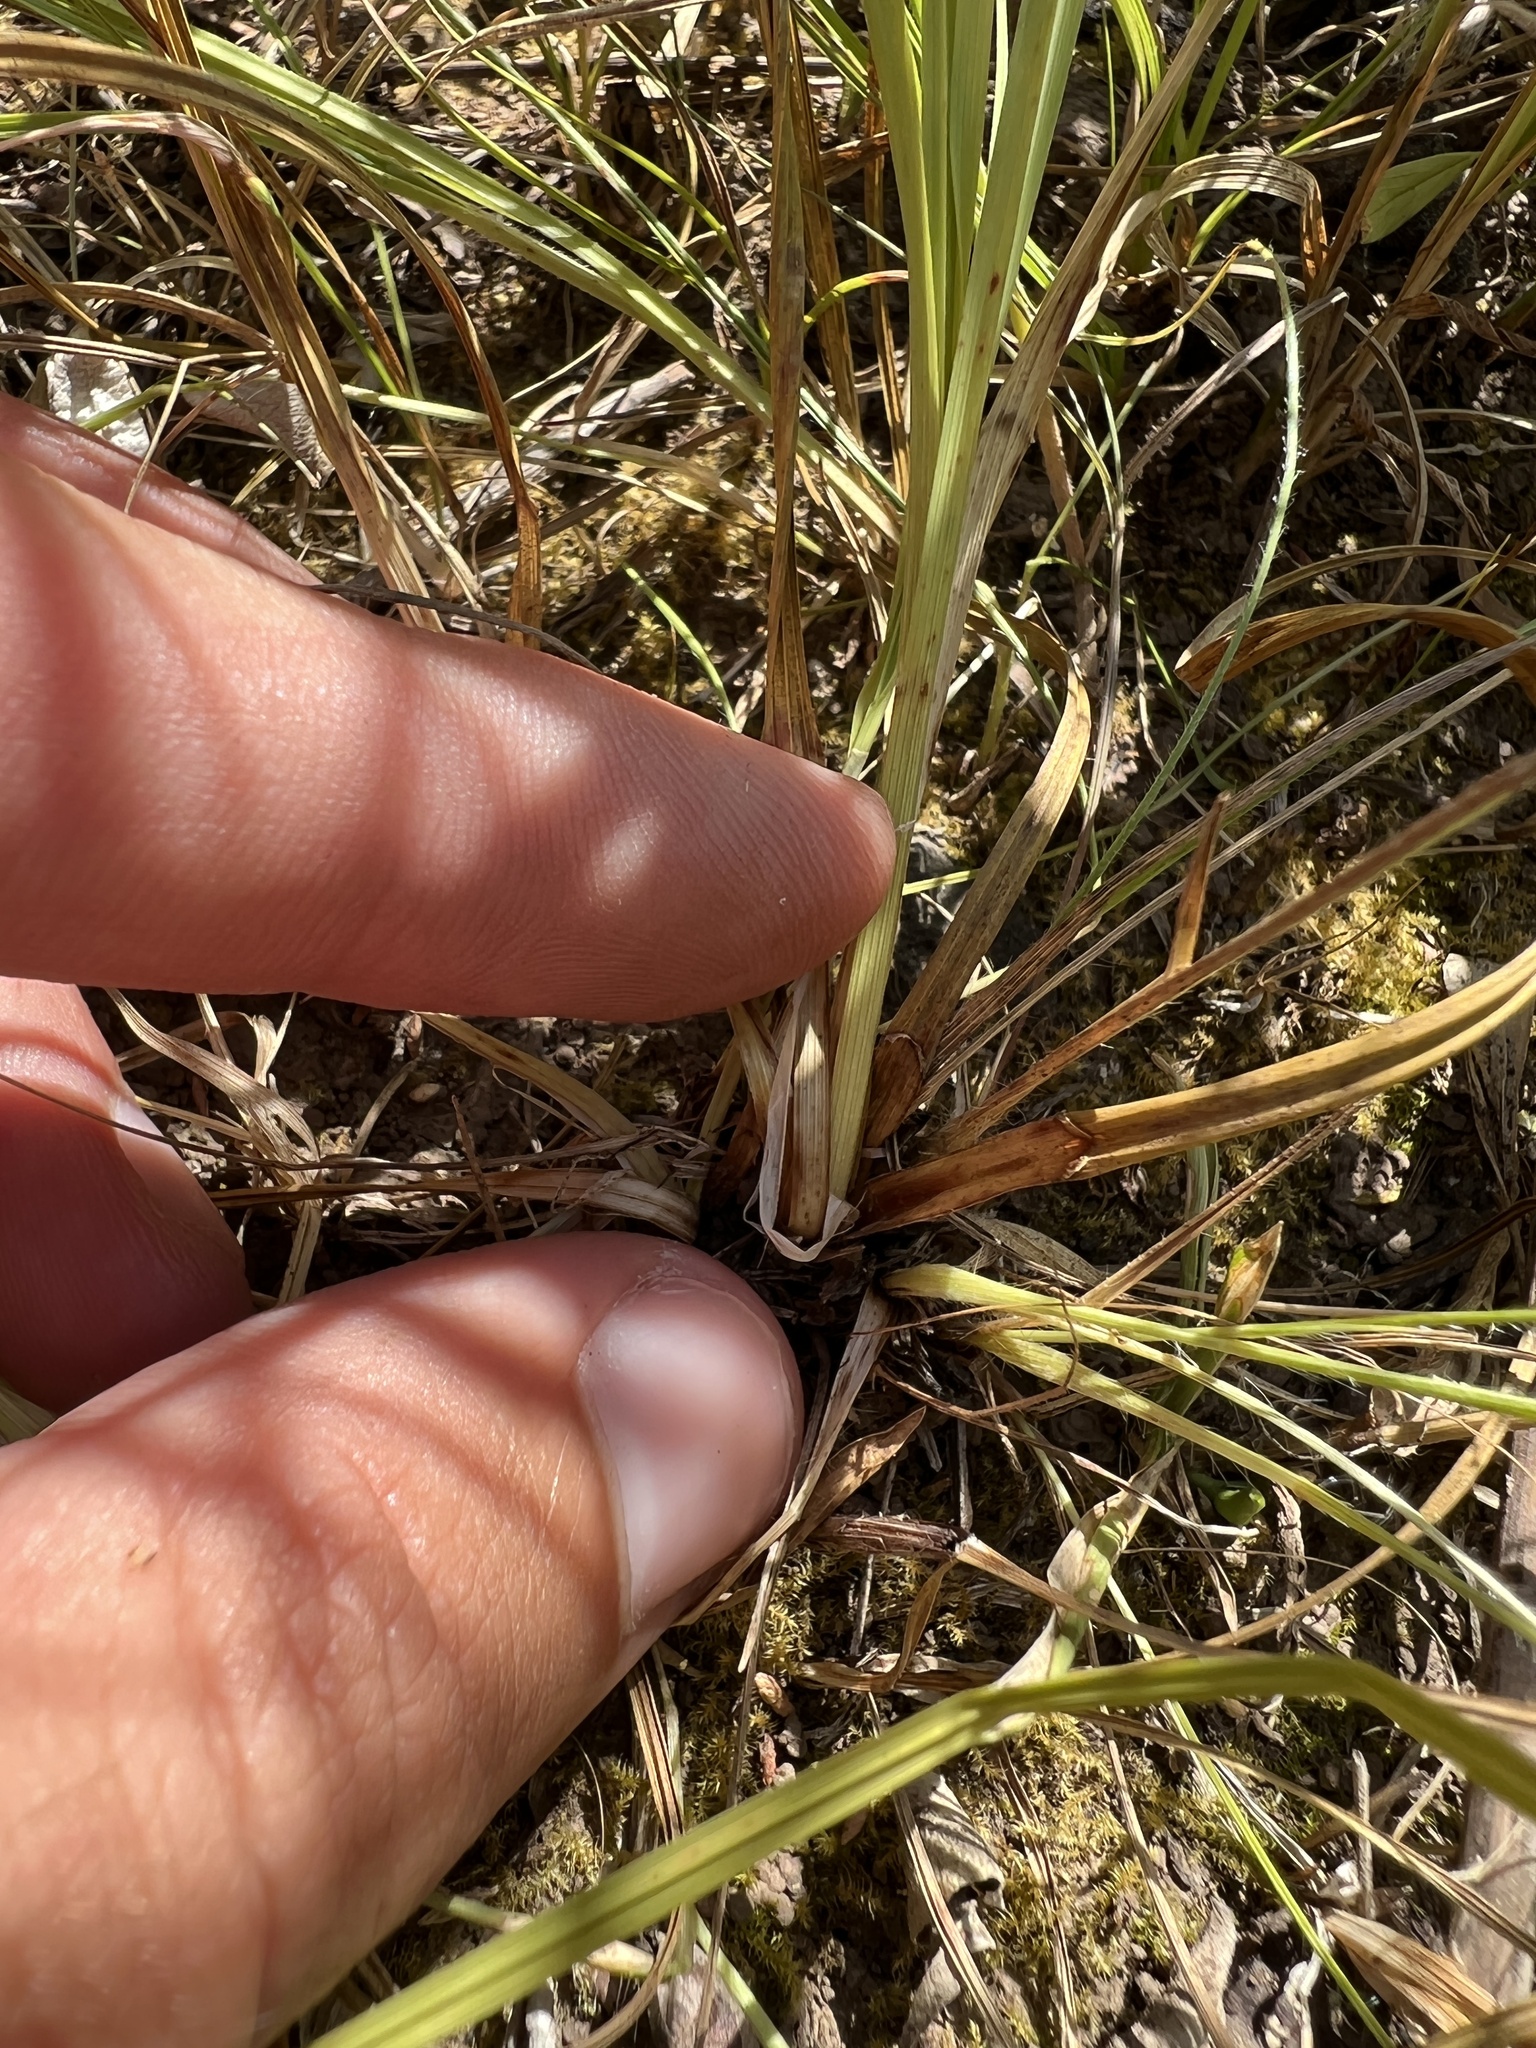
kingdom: Plantae
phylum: Tracheophyta
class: Liliopsida
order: Poales
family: Cyperaceae
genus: Carex
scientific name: Carex meadii
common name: Mead's sedge
